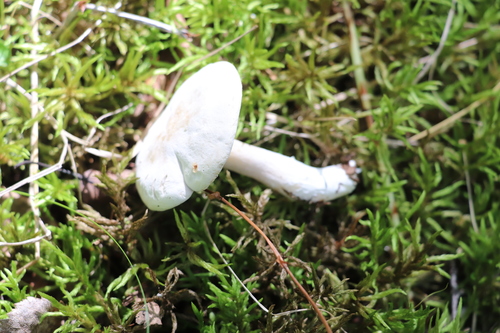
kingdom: Fungi
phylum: Basidiomycota
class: Agaricomycetes
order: Agaricales
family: Entolomataceae
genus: Clitopilus
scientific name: Clitopilus prunulus
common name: The miller
